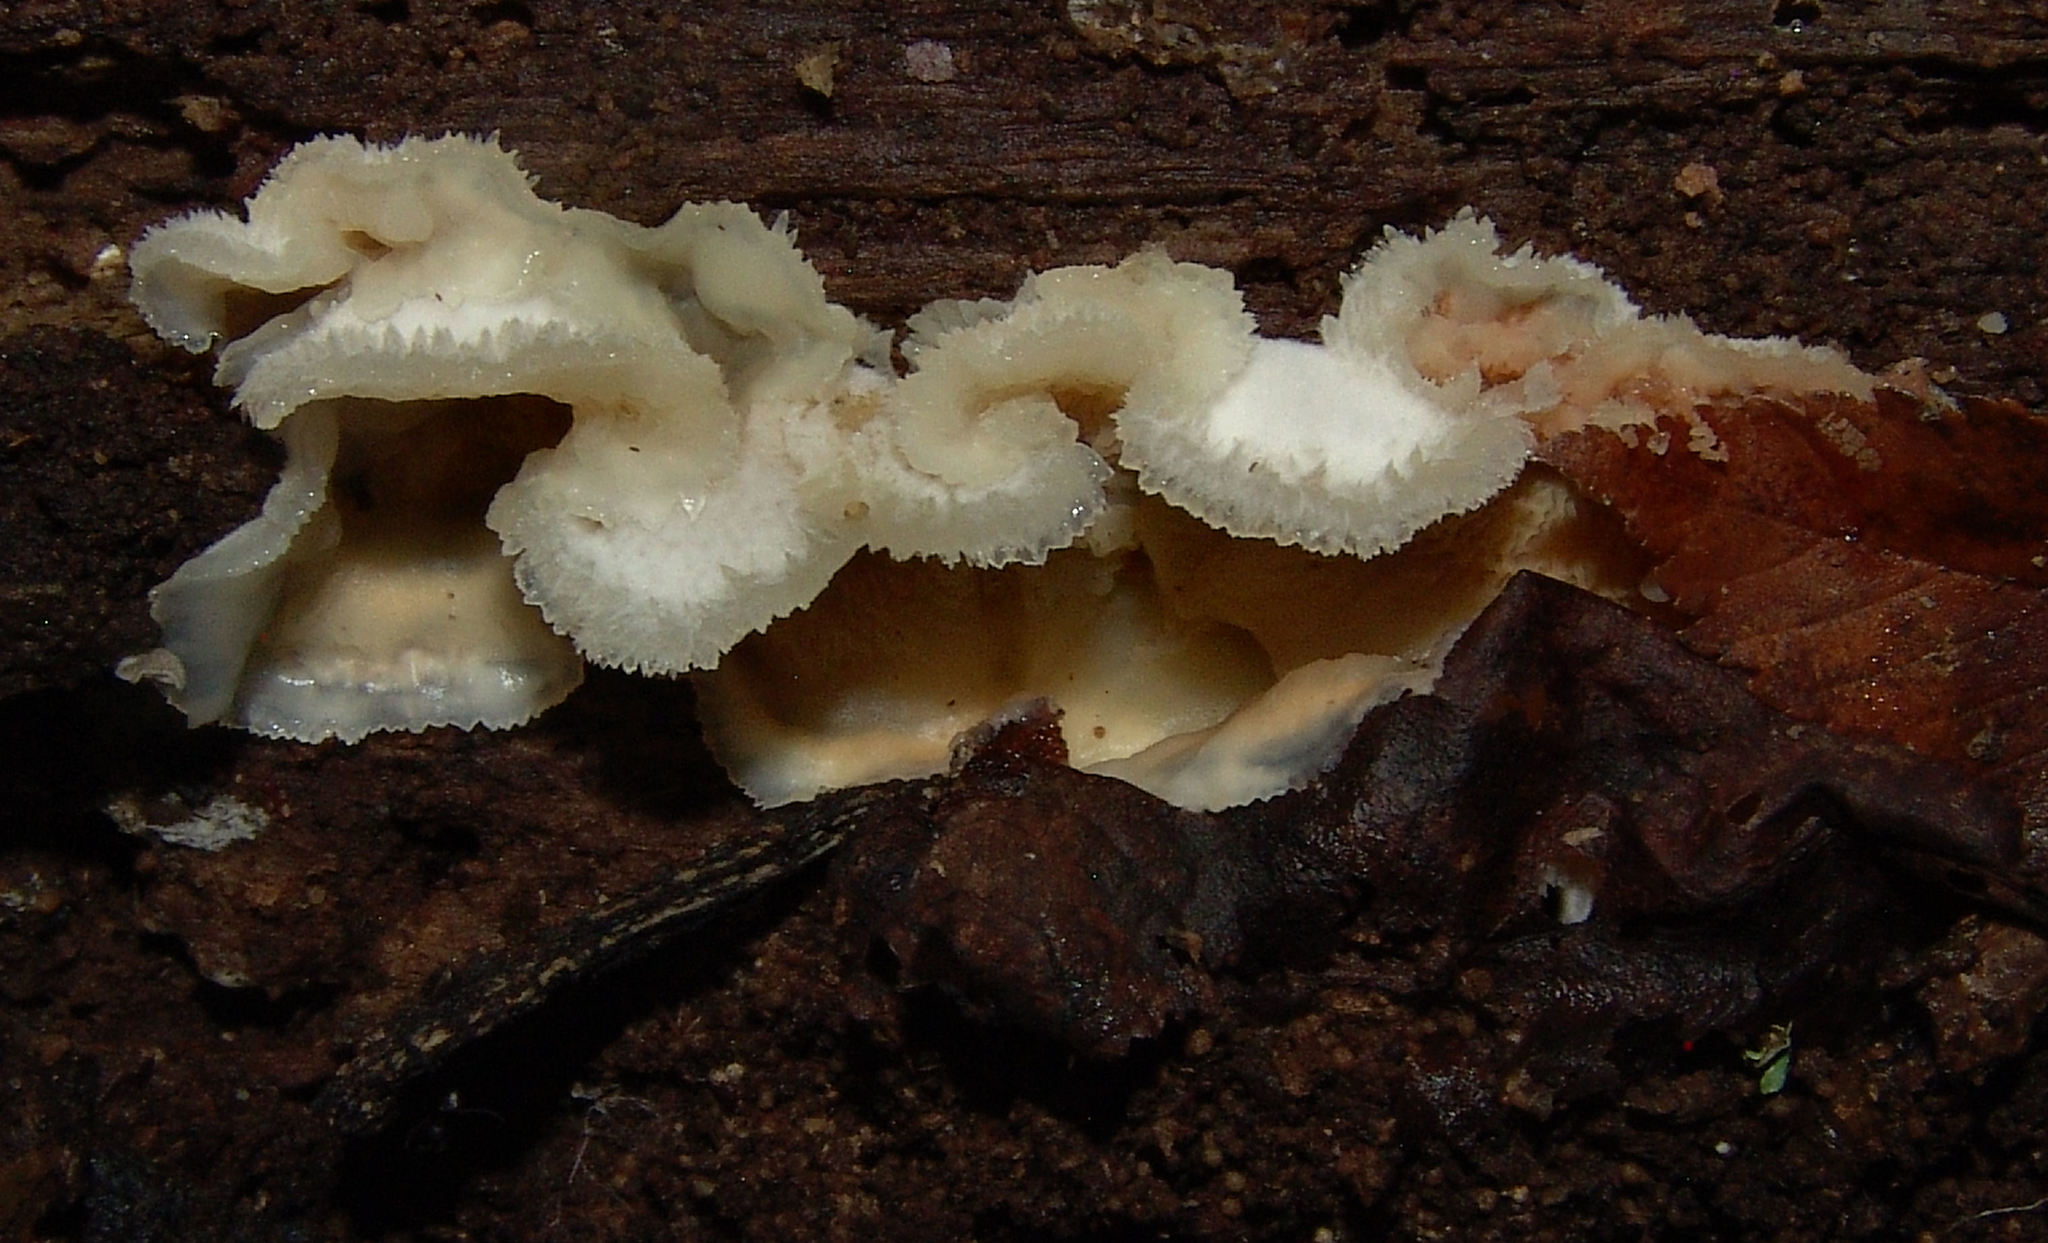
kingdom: Fungi
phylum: Basidiomycota
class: Agaricomycetes
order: Polyporales
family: Meruliaceae
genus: Phlebia
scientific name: Phlebia tremellosa
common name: Jelly rot
